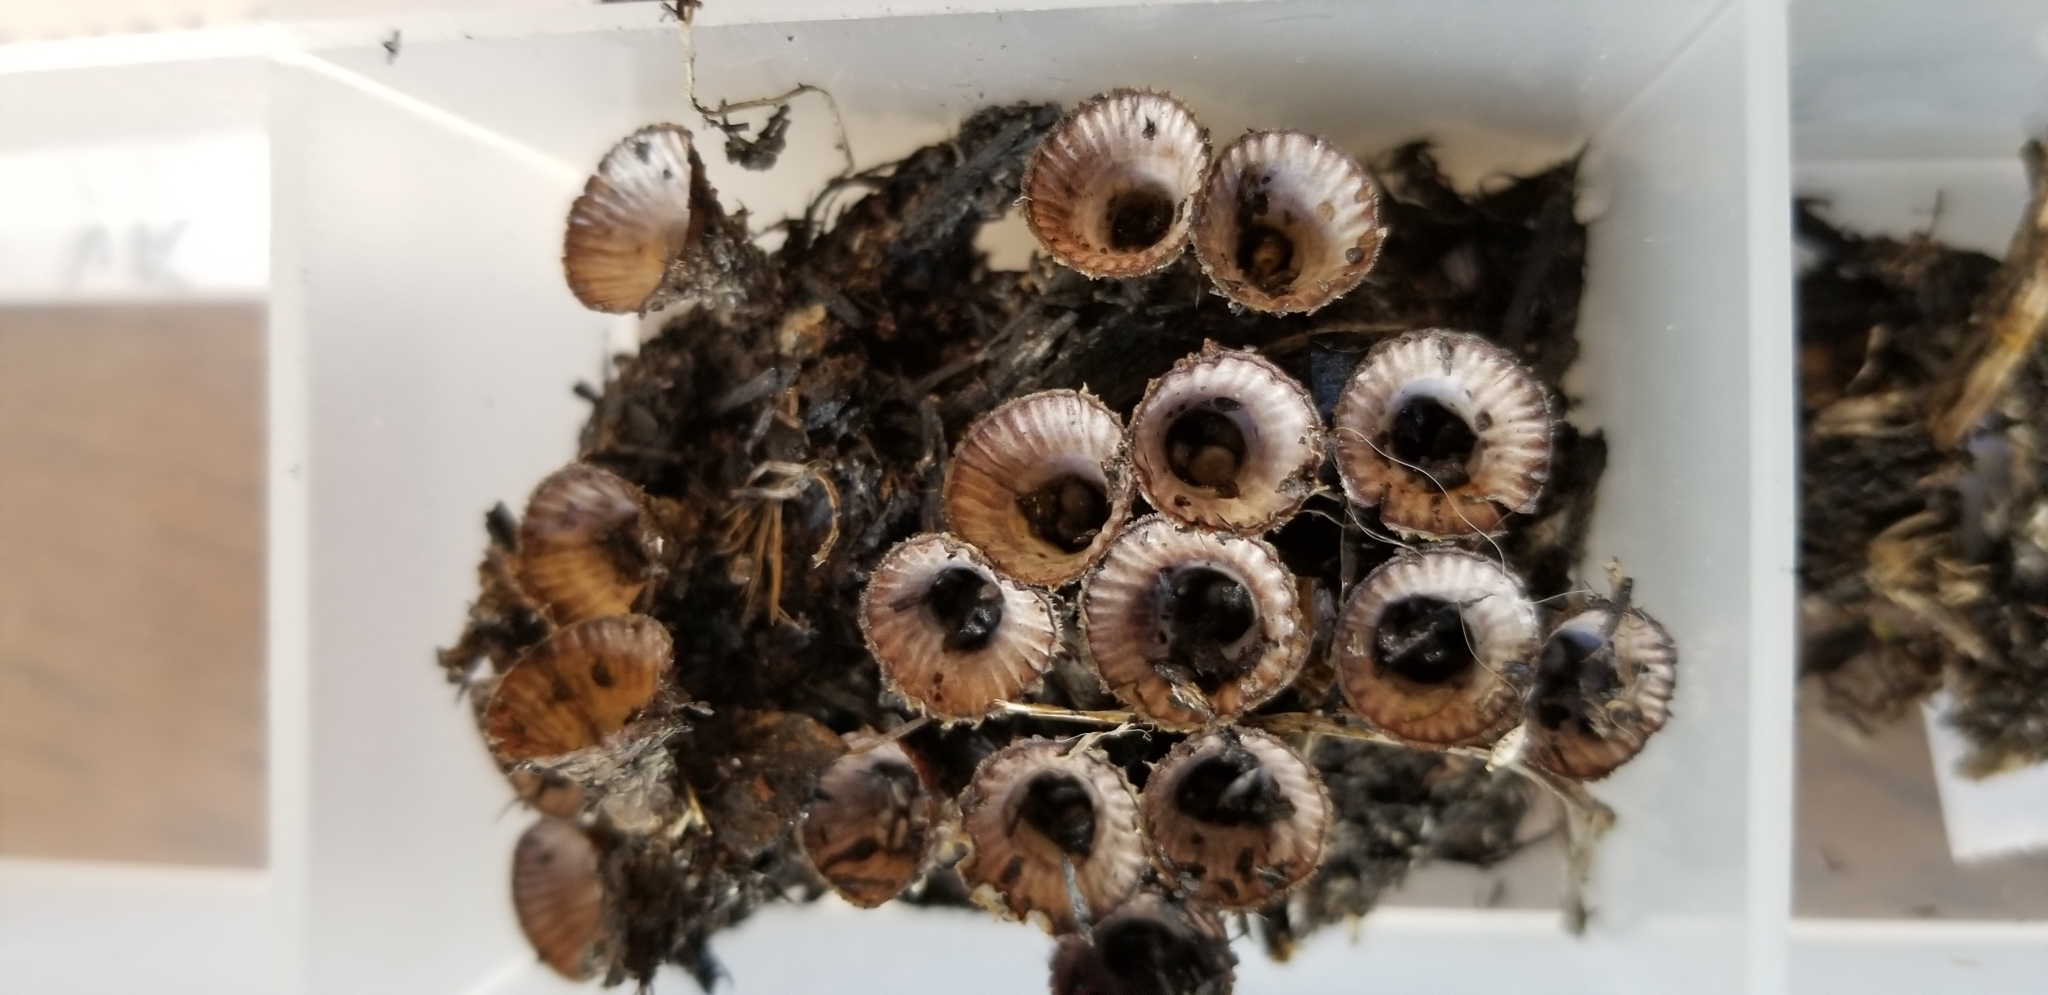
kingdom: Fungi
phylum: Basidiomycota
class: Agaricomycetes
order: Agaricales
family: Agaricaceae
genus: Cyathus
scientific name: Cyathus striatus
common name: Fluted bird's nest
